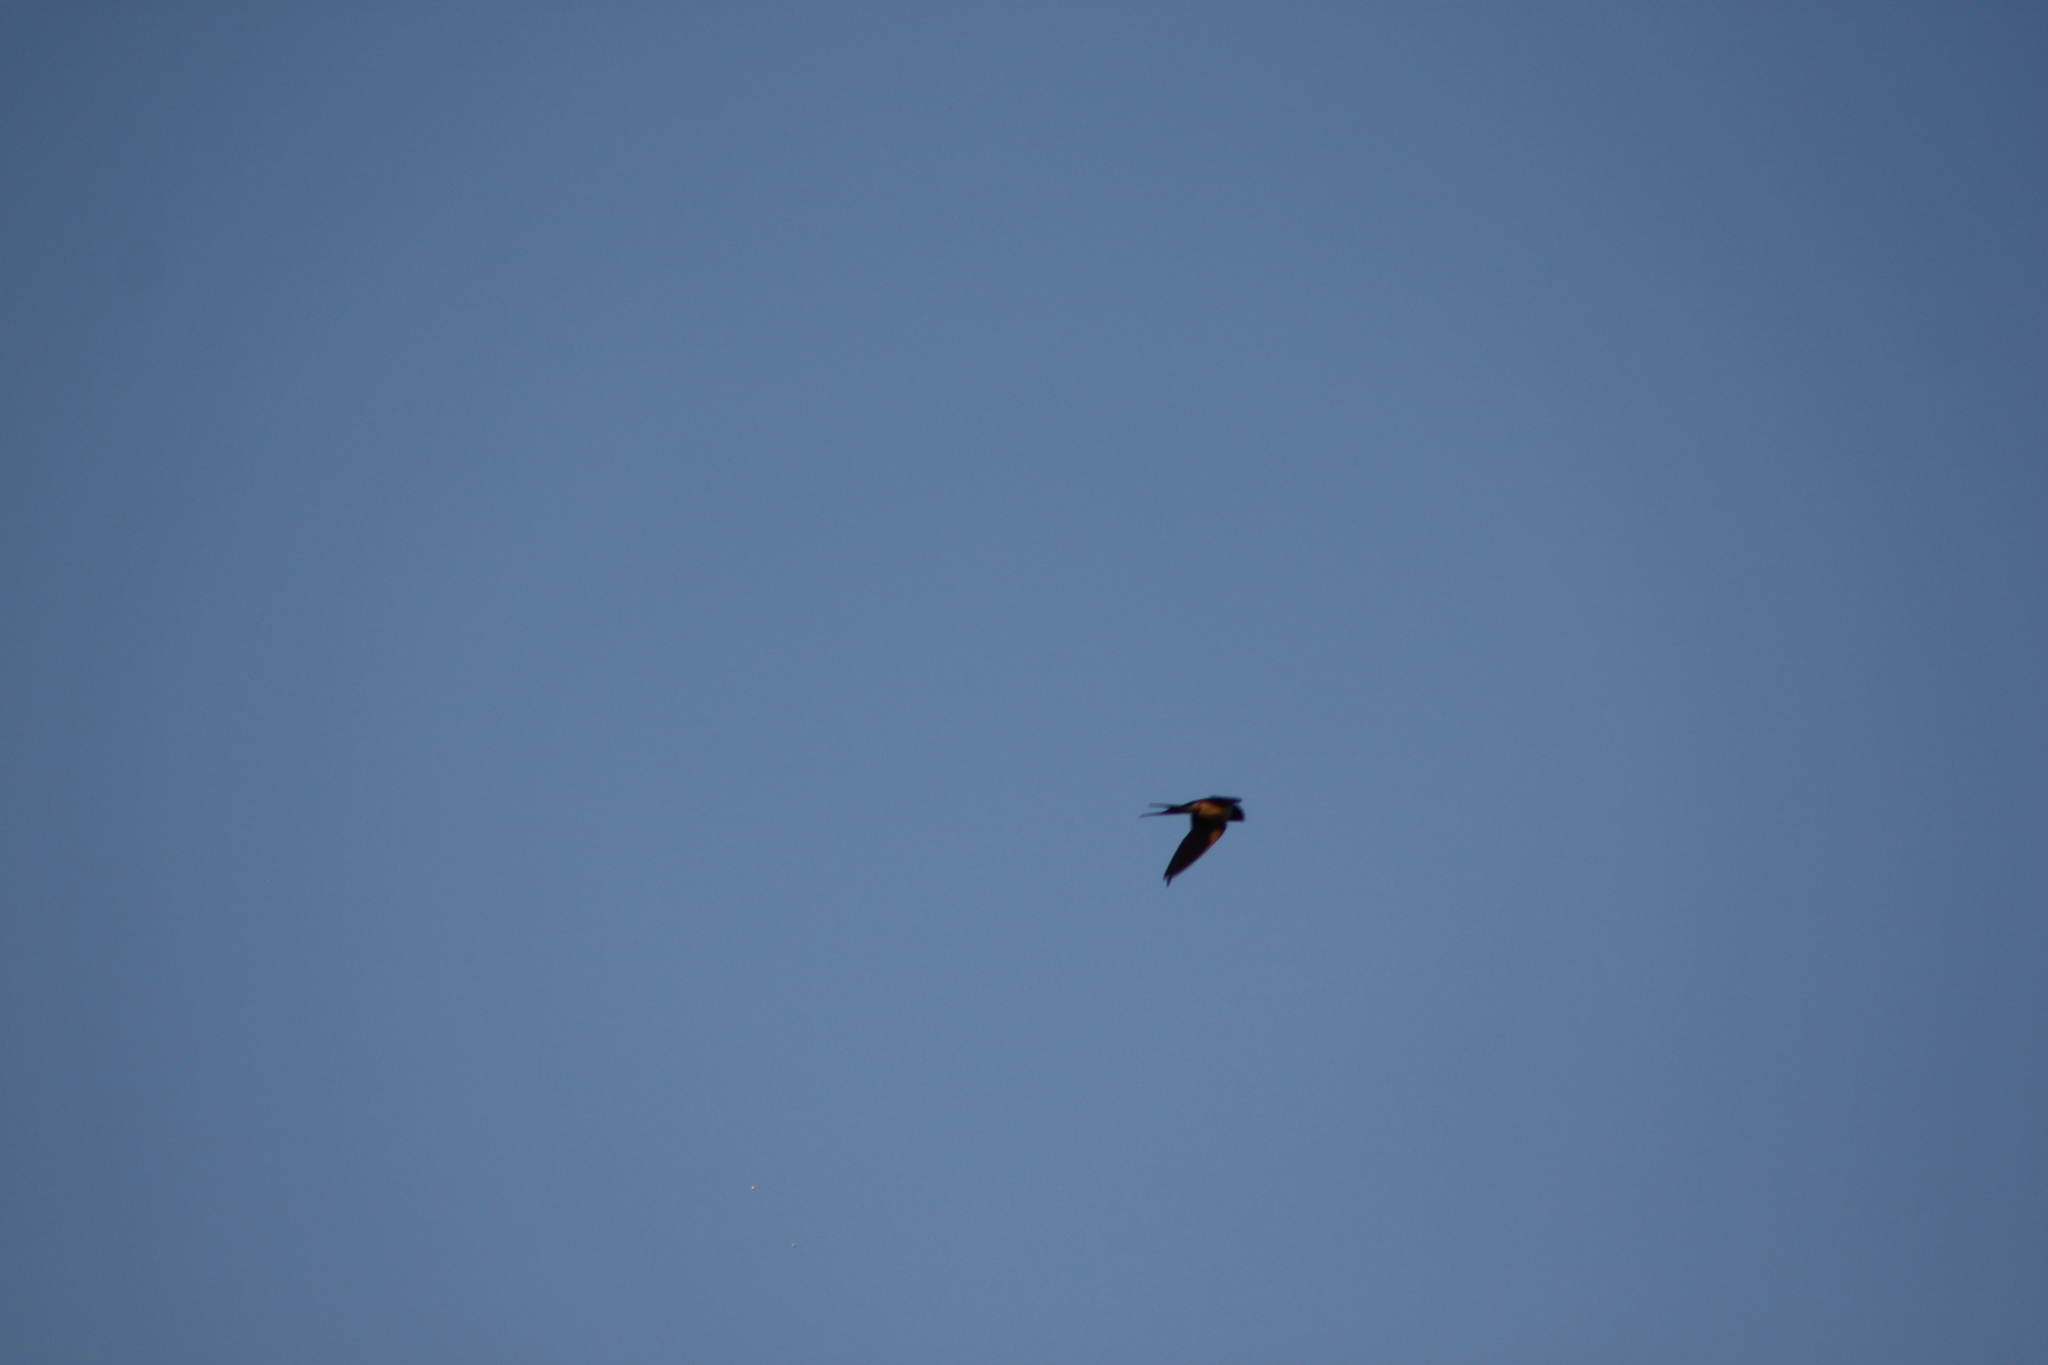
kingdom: Animalia
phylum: Chordata
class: Aves
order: Passeriformes
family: Hirundinidae
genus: Hirundo
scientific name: Hirundo rustica
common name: Barn swallow
